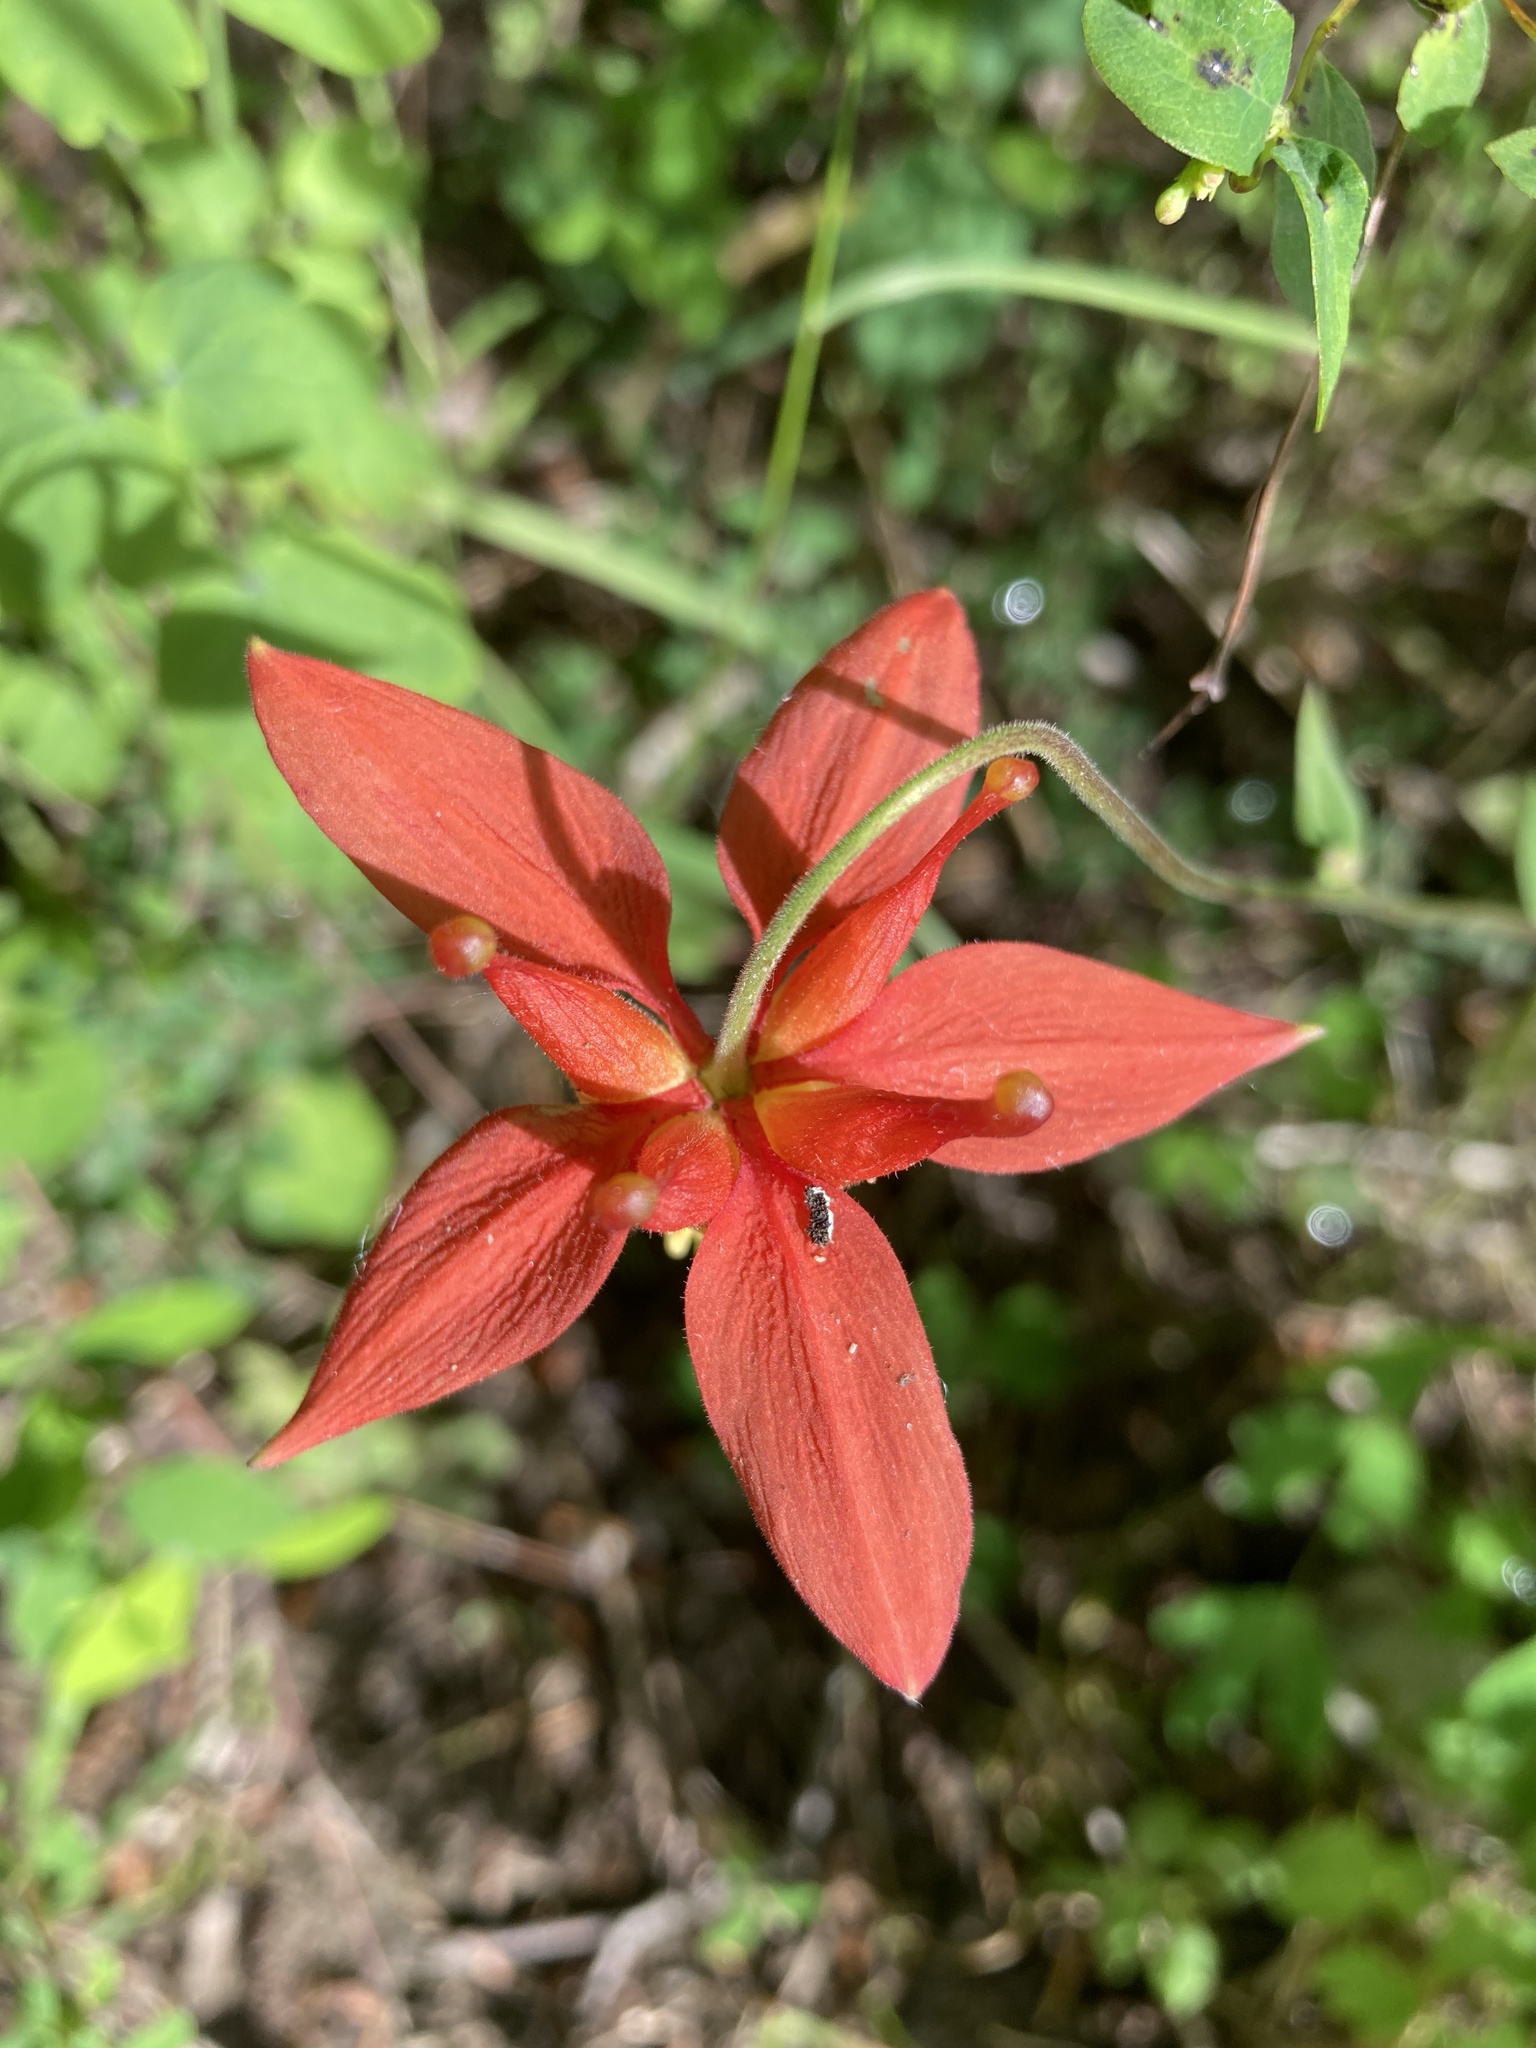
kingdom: Plantae
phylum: Tracheophyta
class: Magnoliopsida
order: Ranunculales
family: Ranunculaceae
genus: Aquilegia
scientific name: Aquilegia formosa
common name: Sitka columbine
